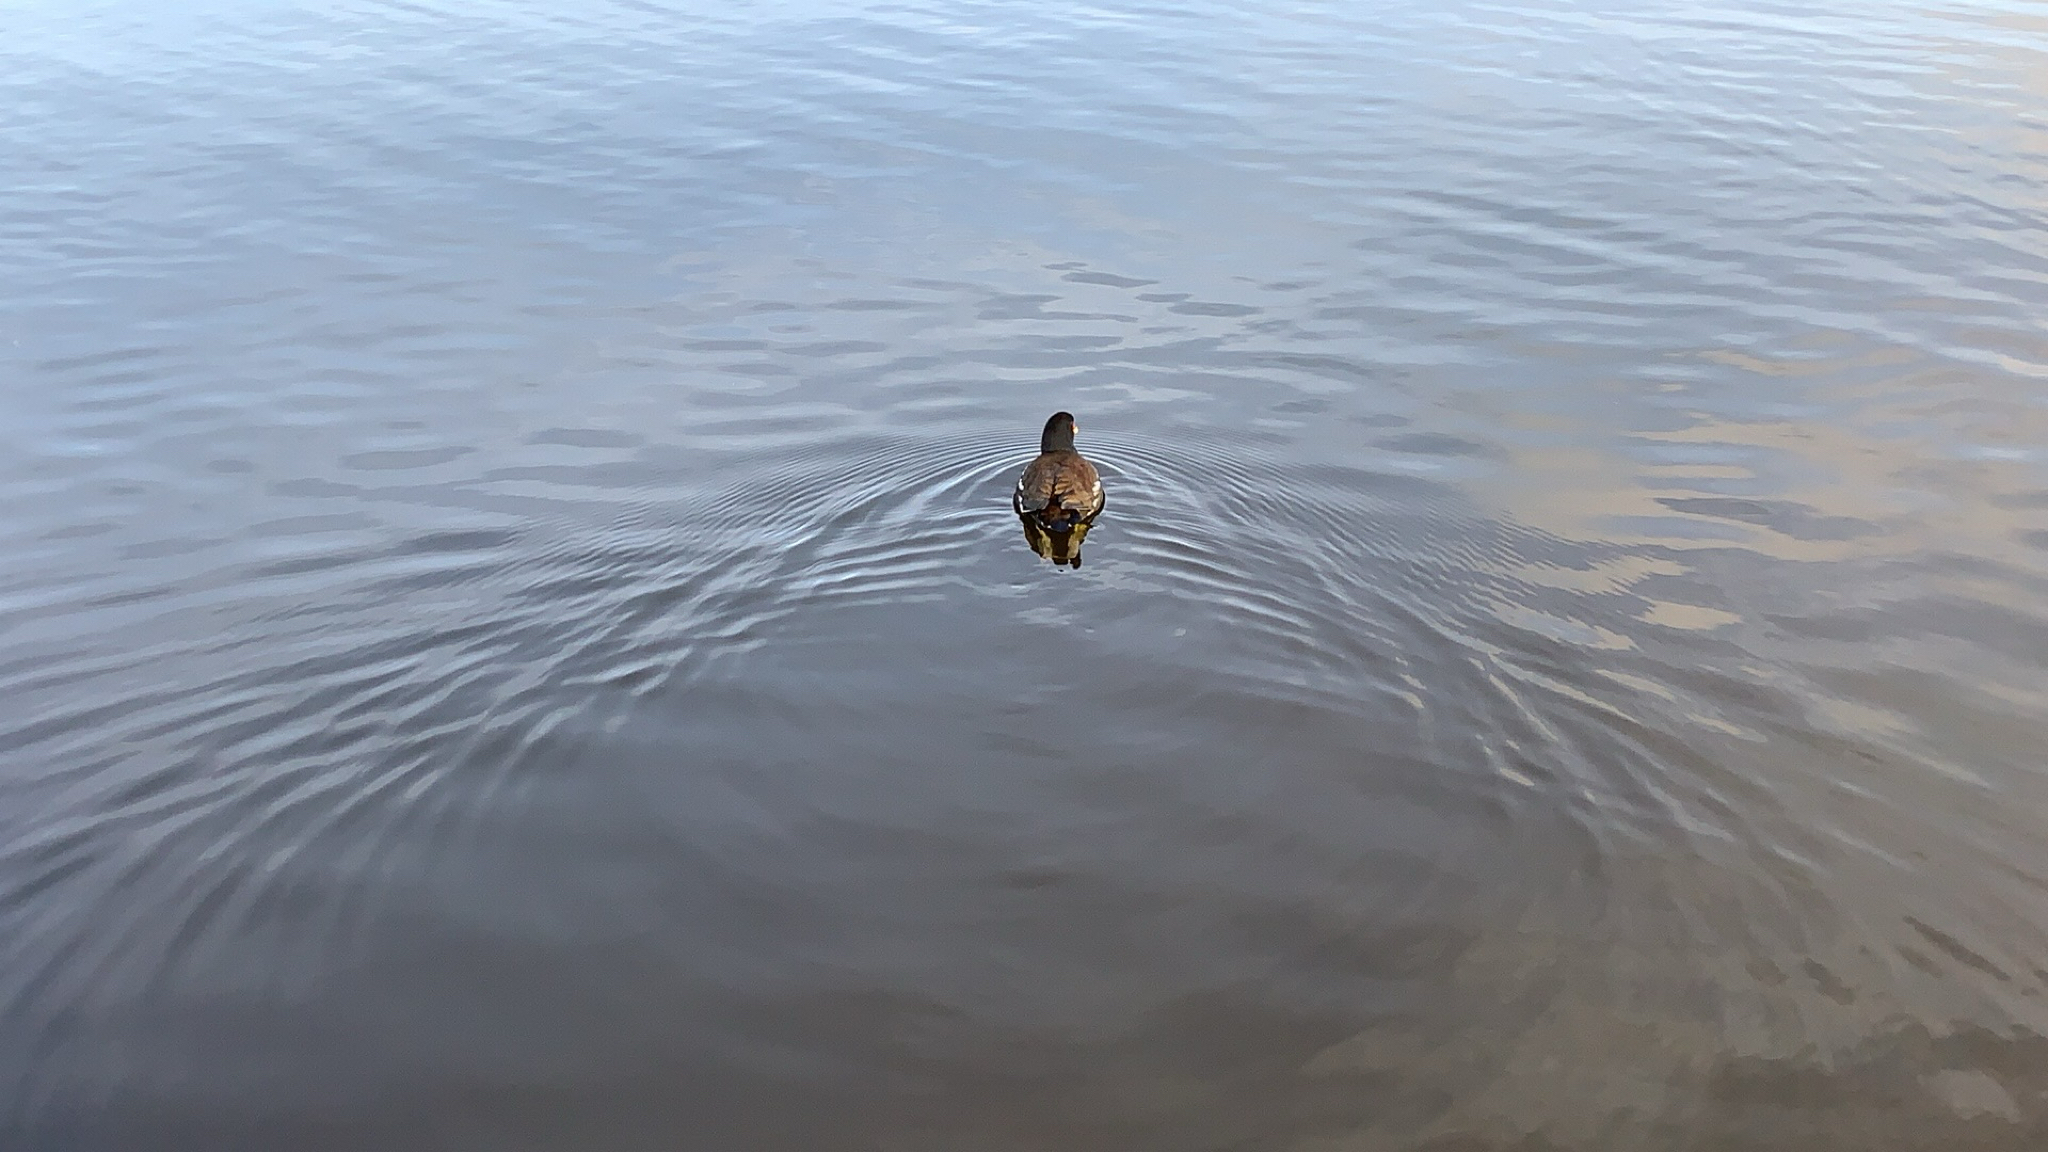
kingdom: Animalia
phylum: Chordata
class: Aves
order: Gruiformes
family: Rallidae
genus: Gallinula
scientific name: Gallinula chloropus
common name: Common moorhen
